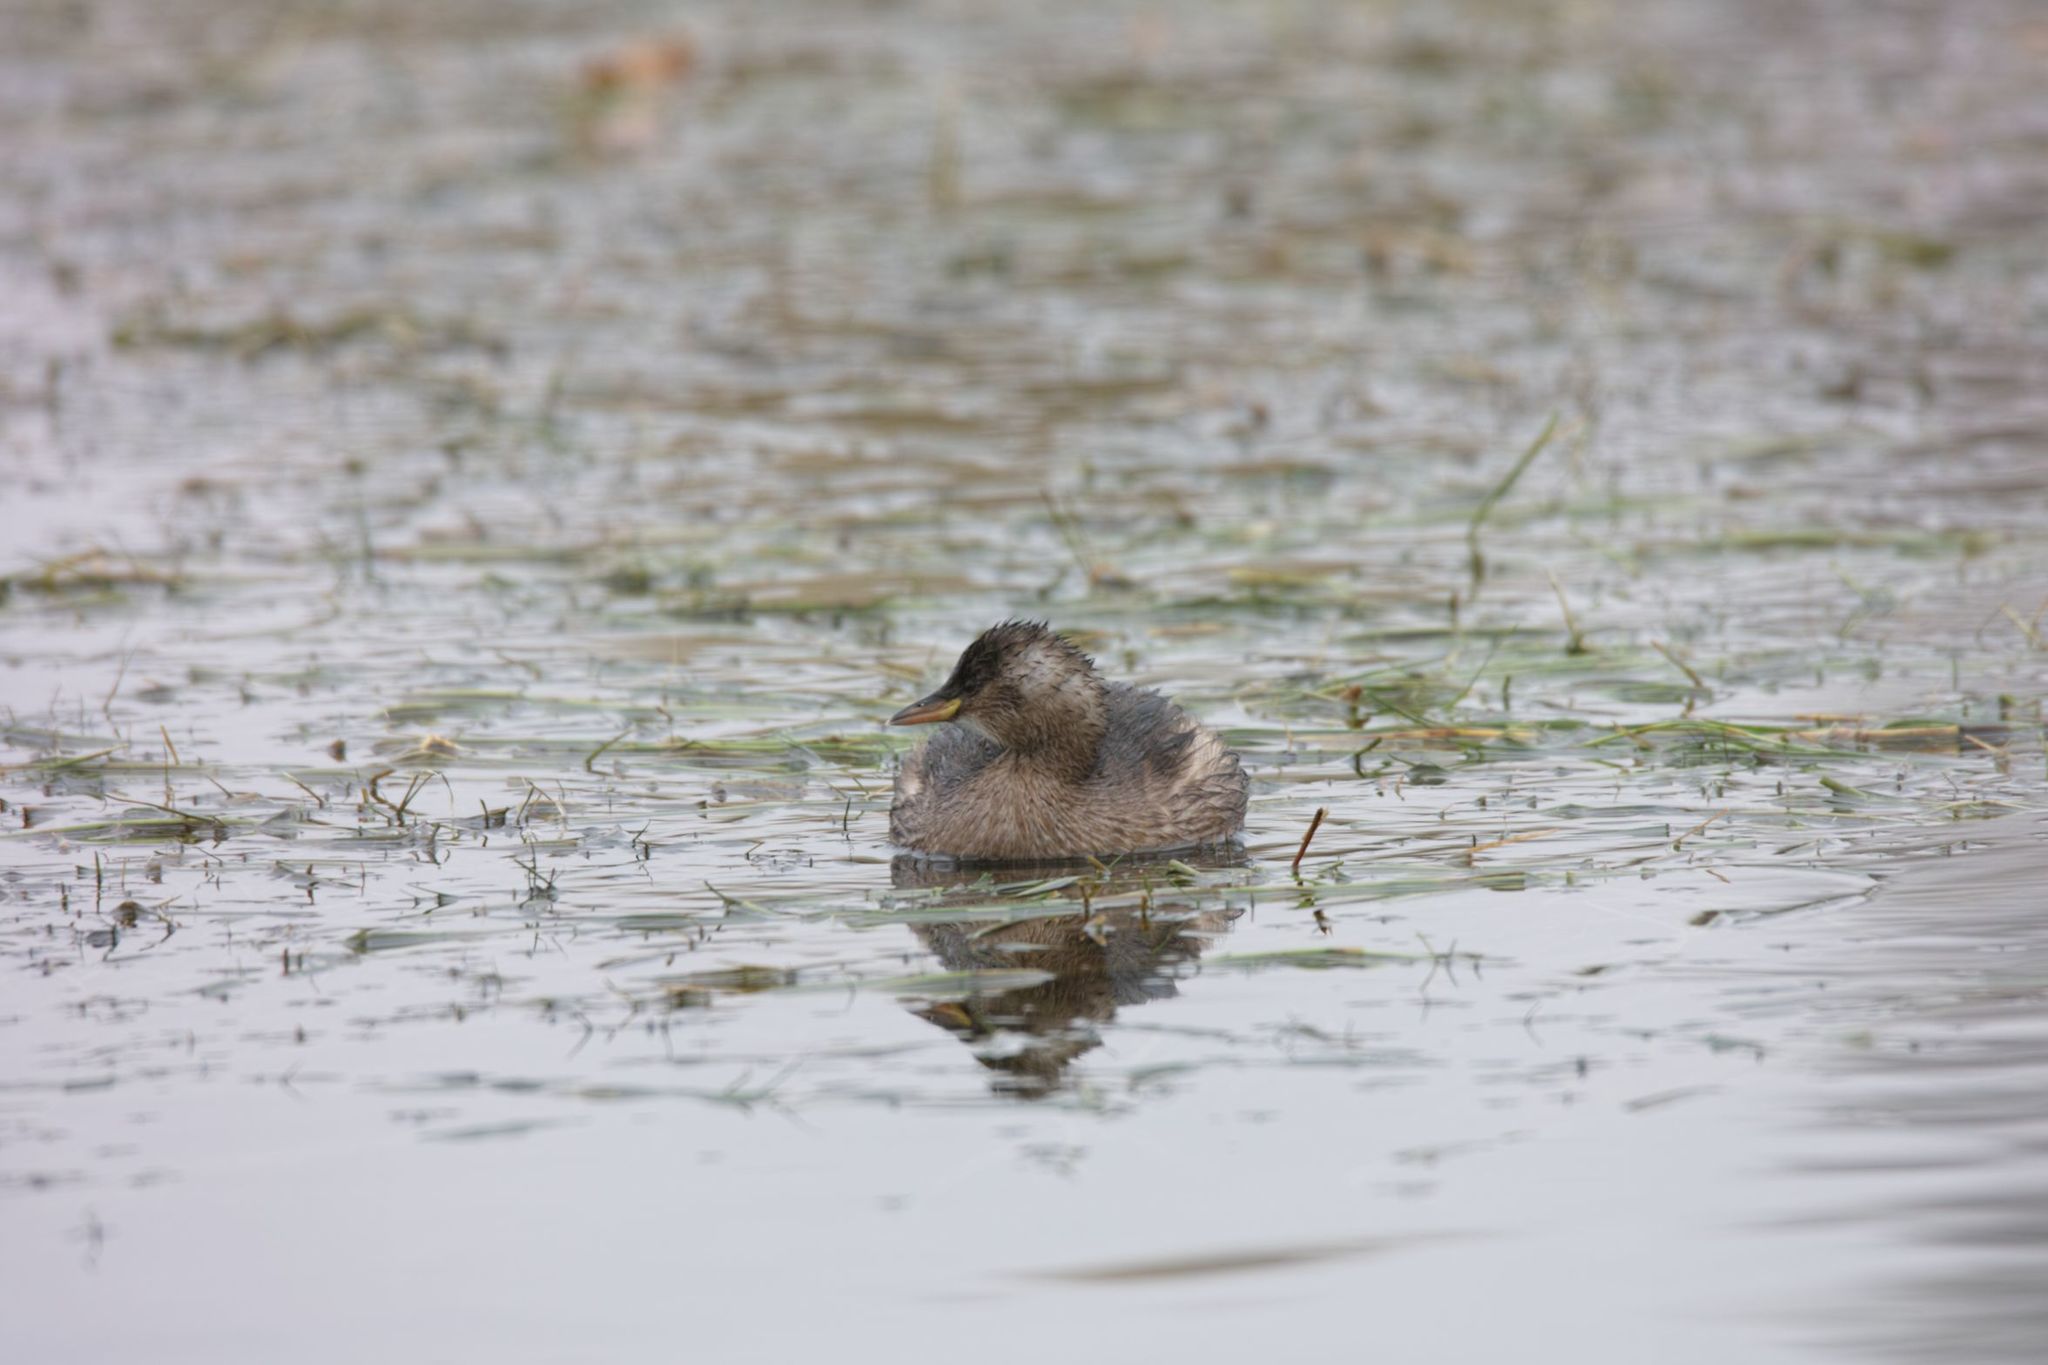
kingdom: Animalia
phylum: Chordata
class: Aves
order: Podicipediformes
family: Podicipedidae
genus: Tachybaptus
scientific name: Tachybaptus ruficollis
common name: Little grebe
